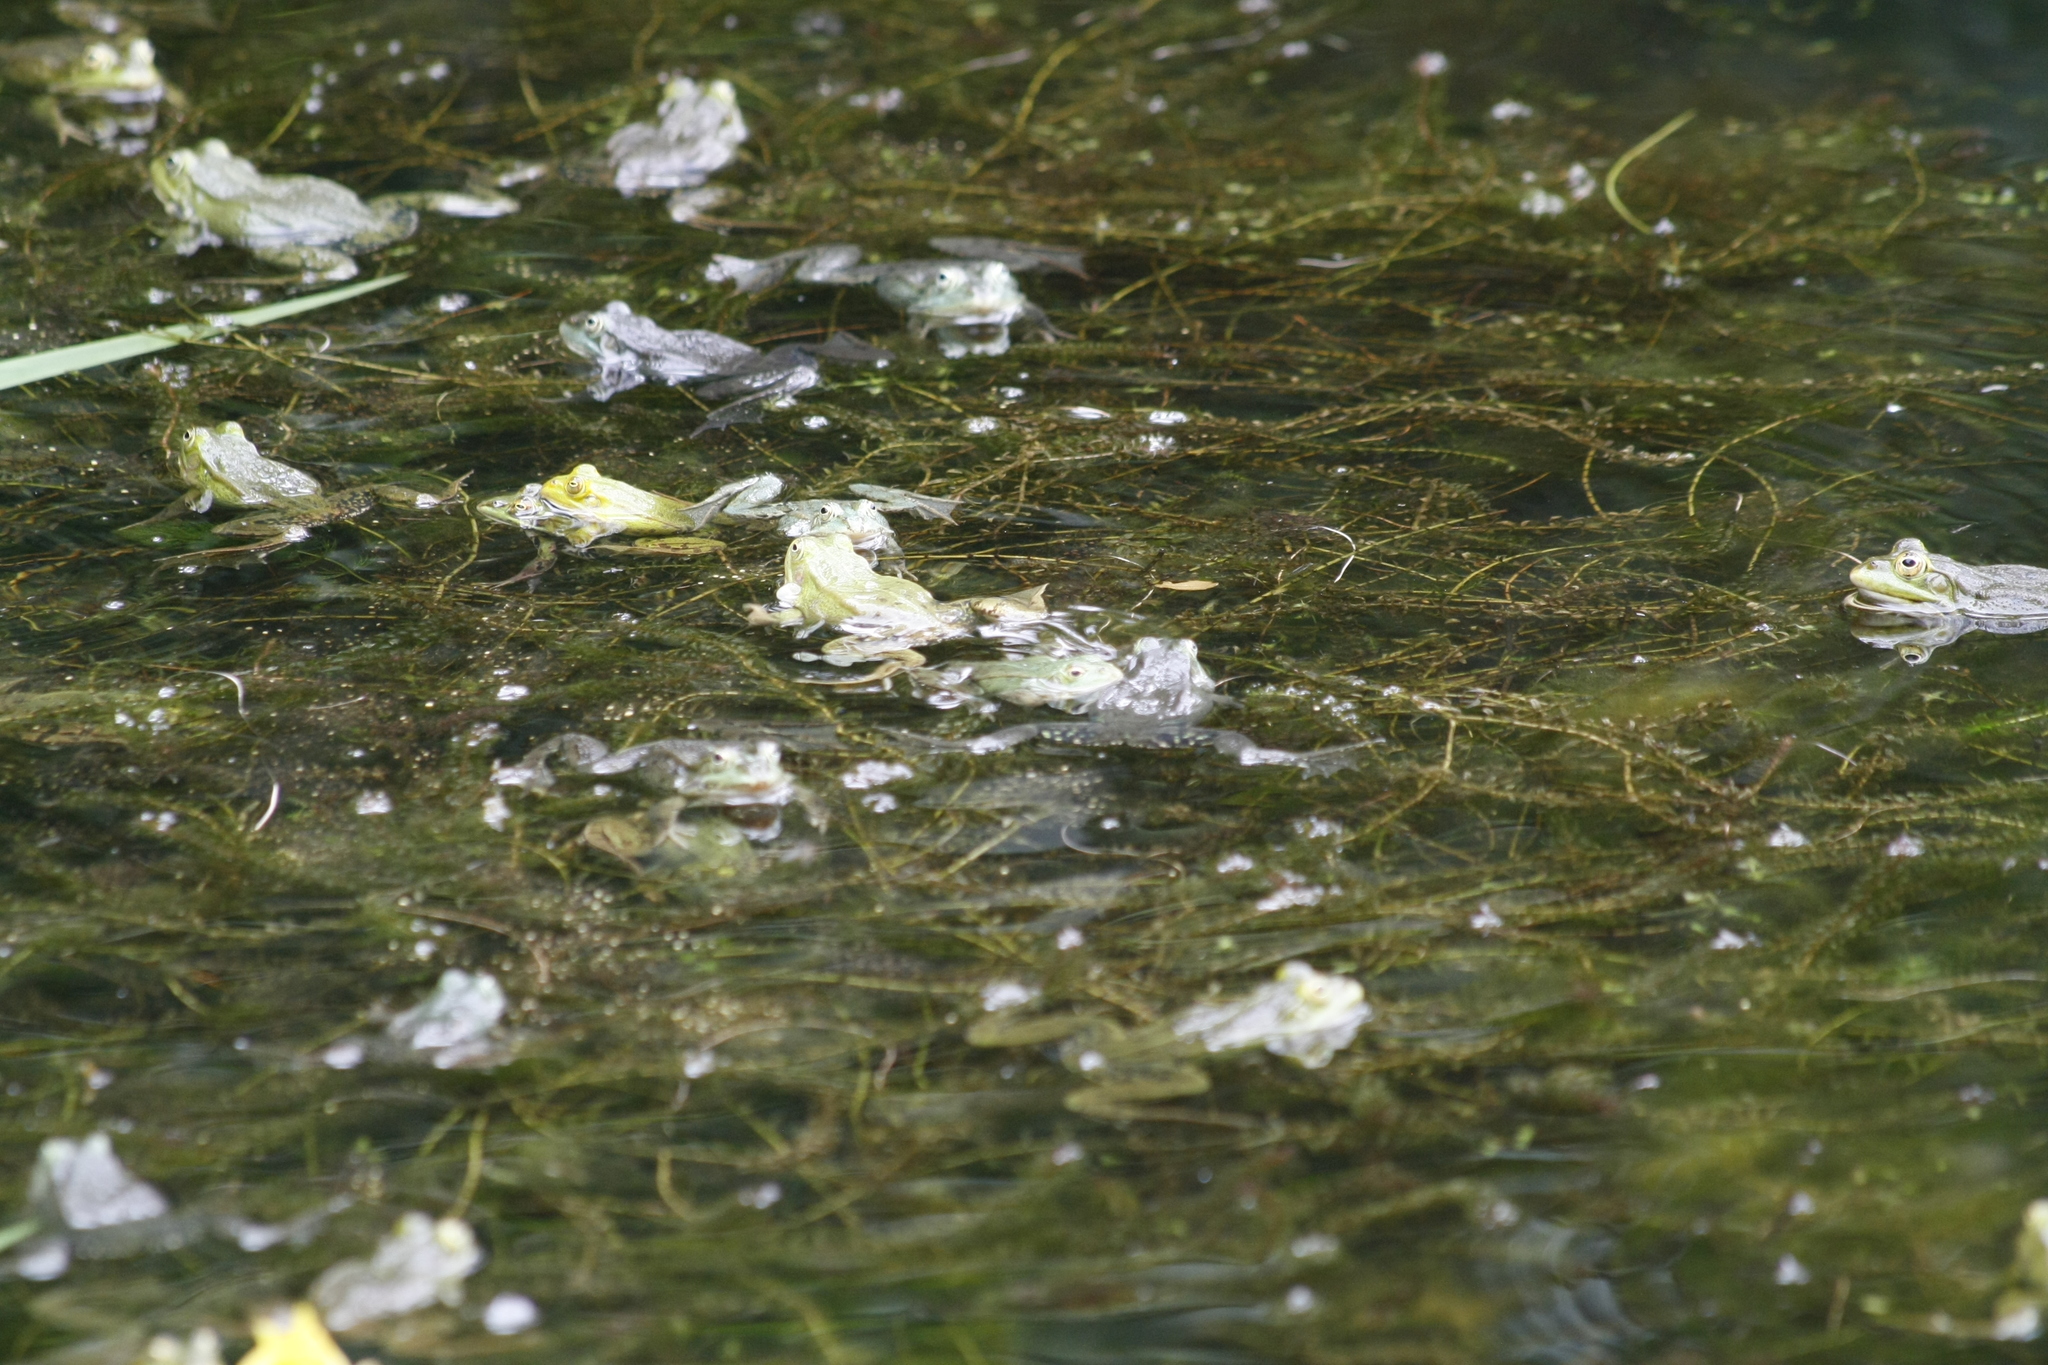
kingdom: Animalia
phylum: Chordata
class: Amphibia
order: Anura
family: Ranidae
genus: Pelophylax
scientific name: Pelophylax
